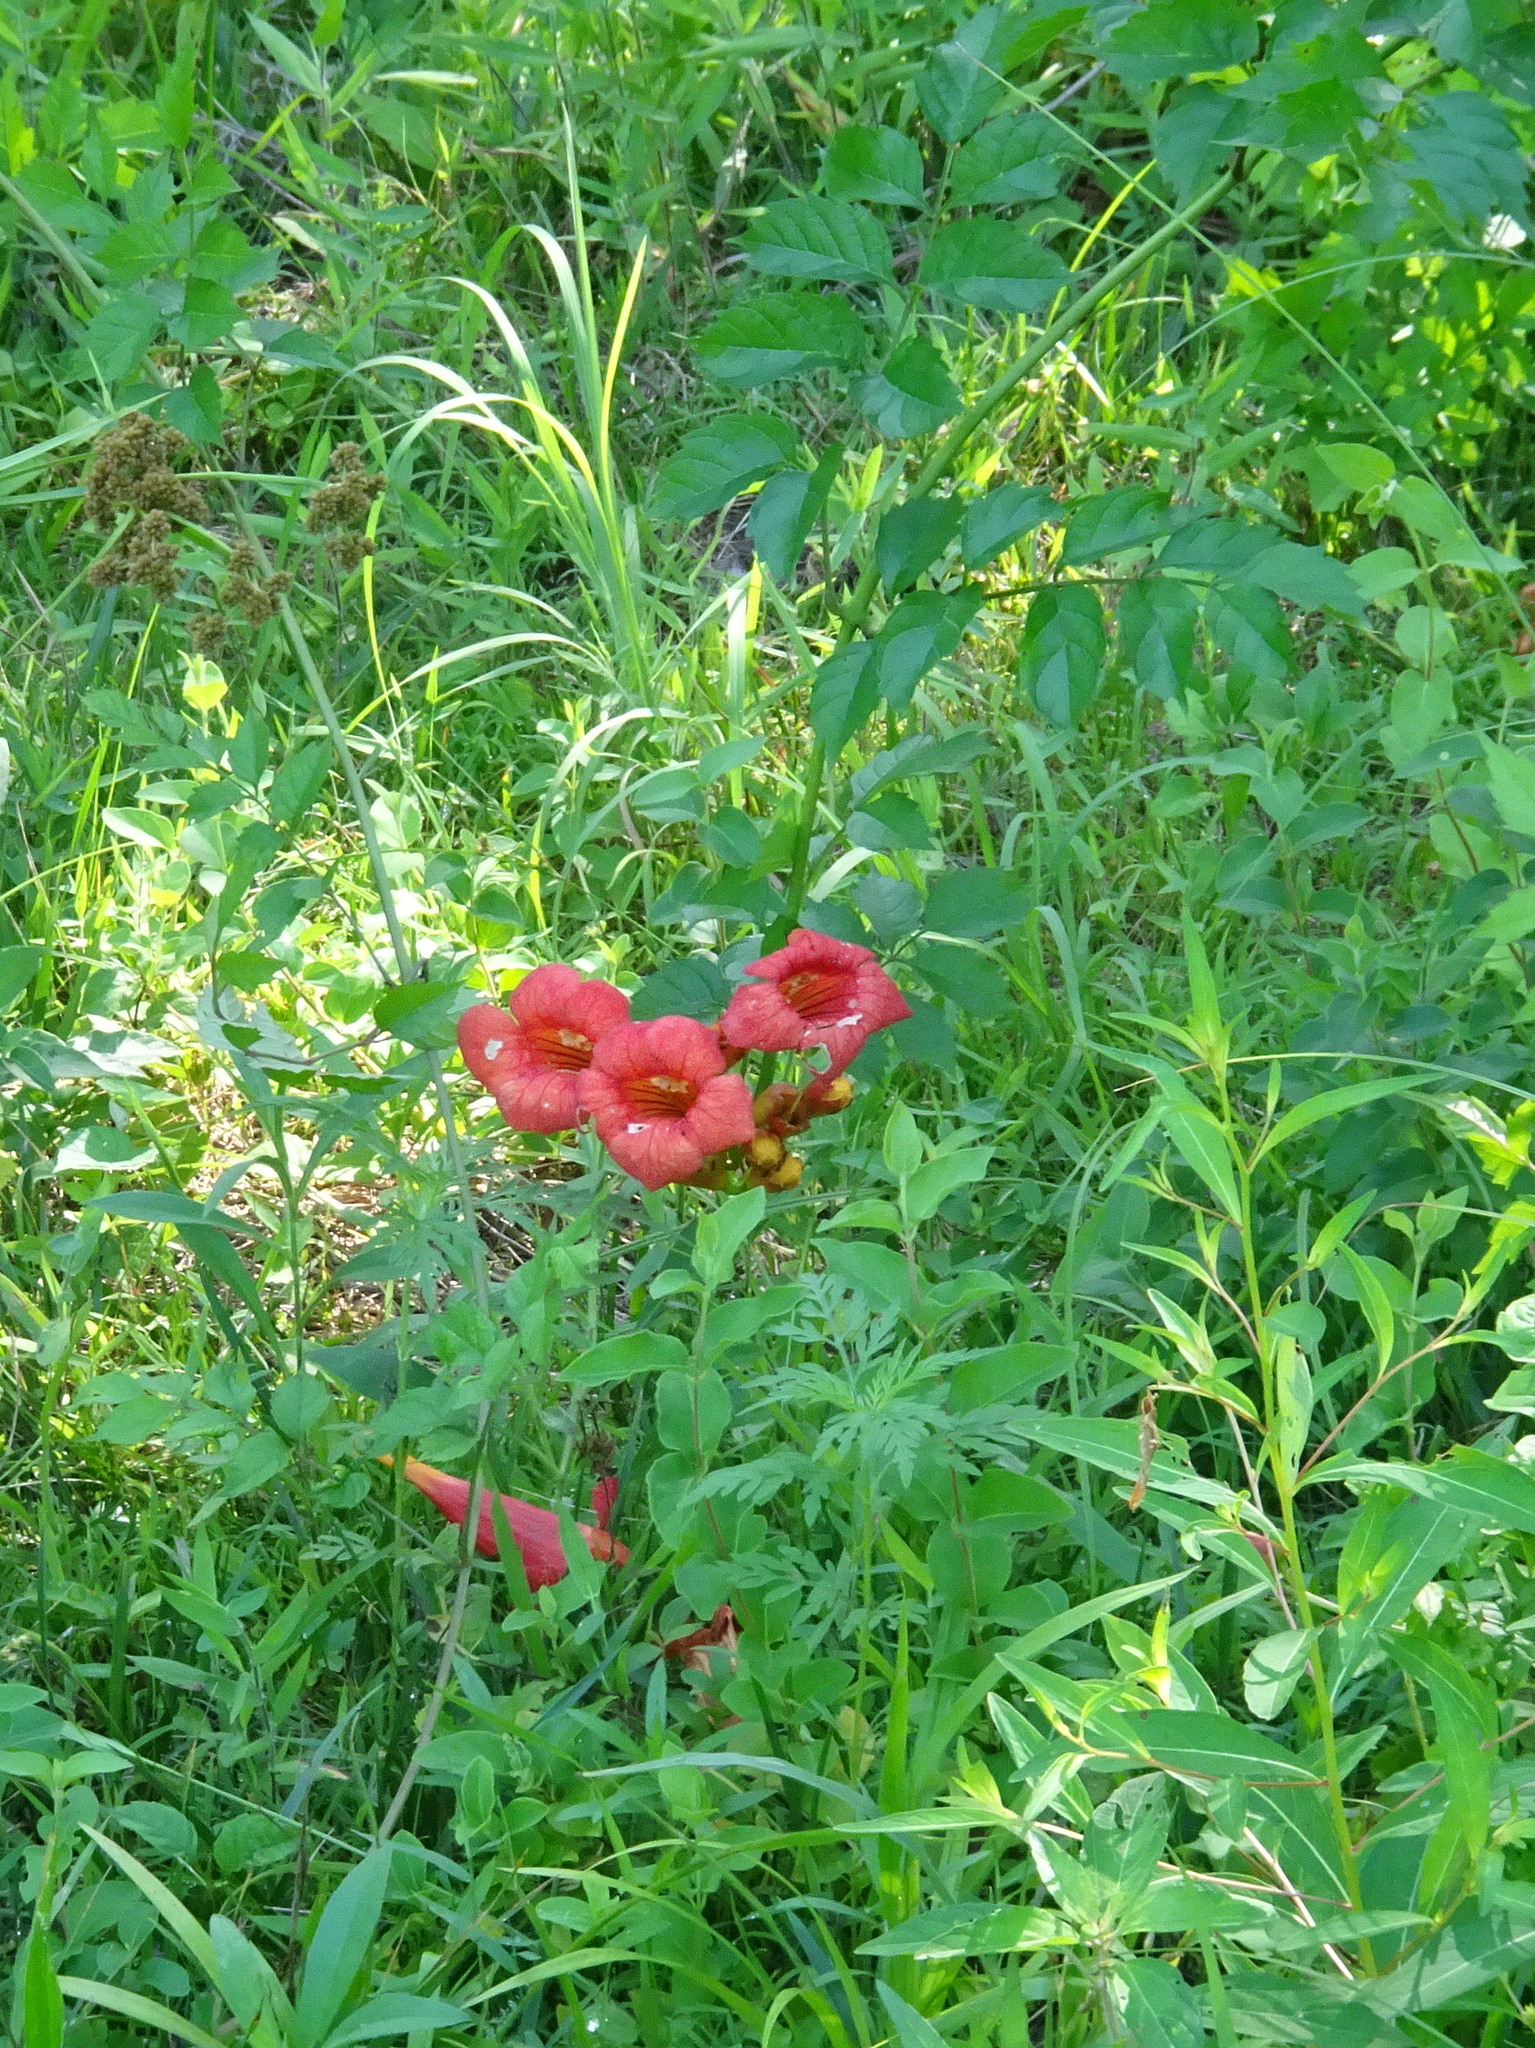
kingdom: Plantae
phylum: Tracheophyta
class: Magnoliopsida
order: Lamiales
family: Bignoniaceae
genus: Campsis
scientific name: Campsis radicans
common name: Trumpet-creeper
